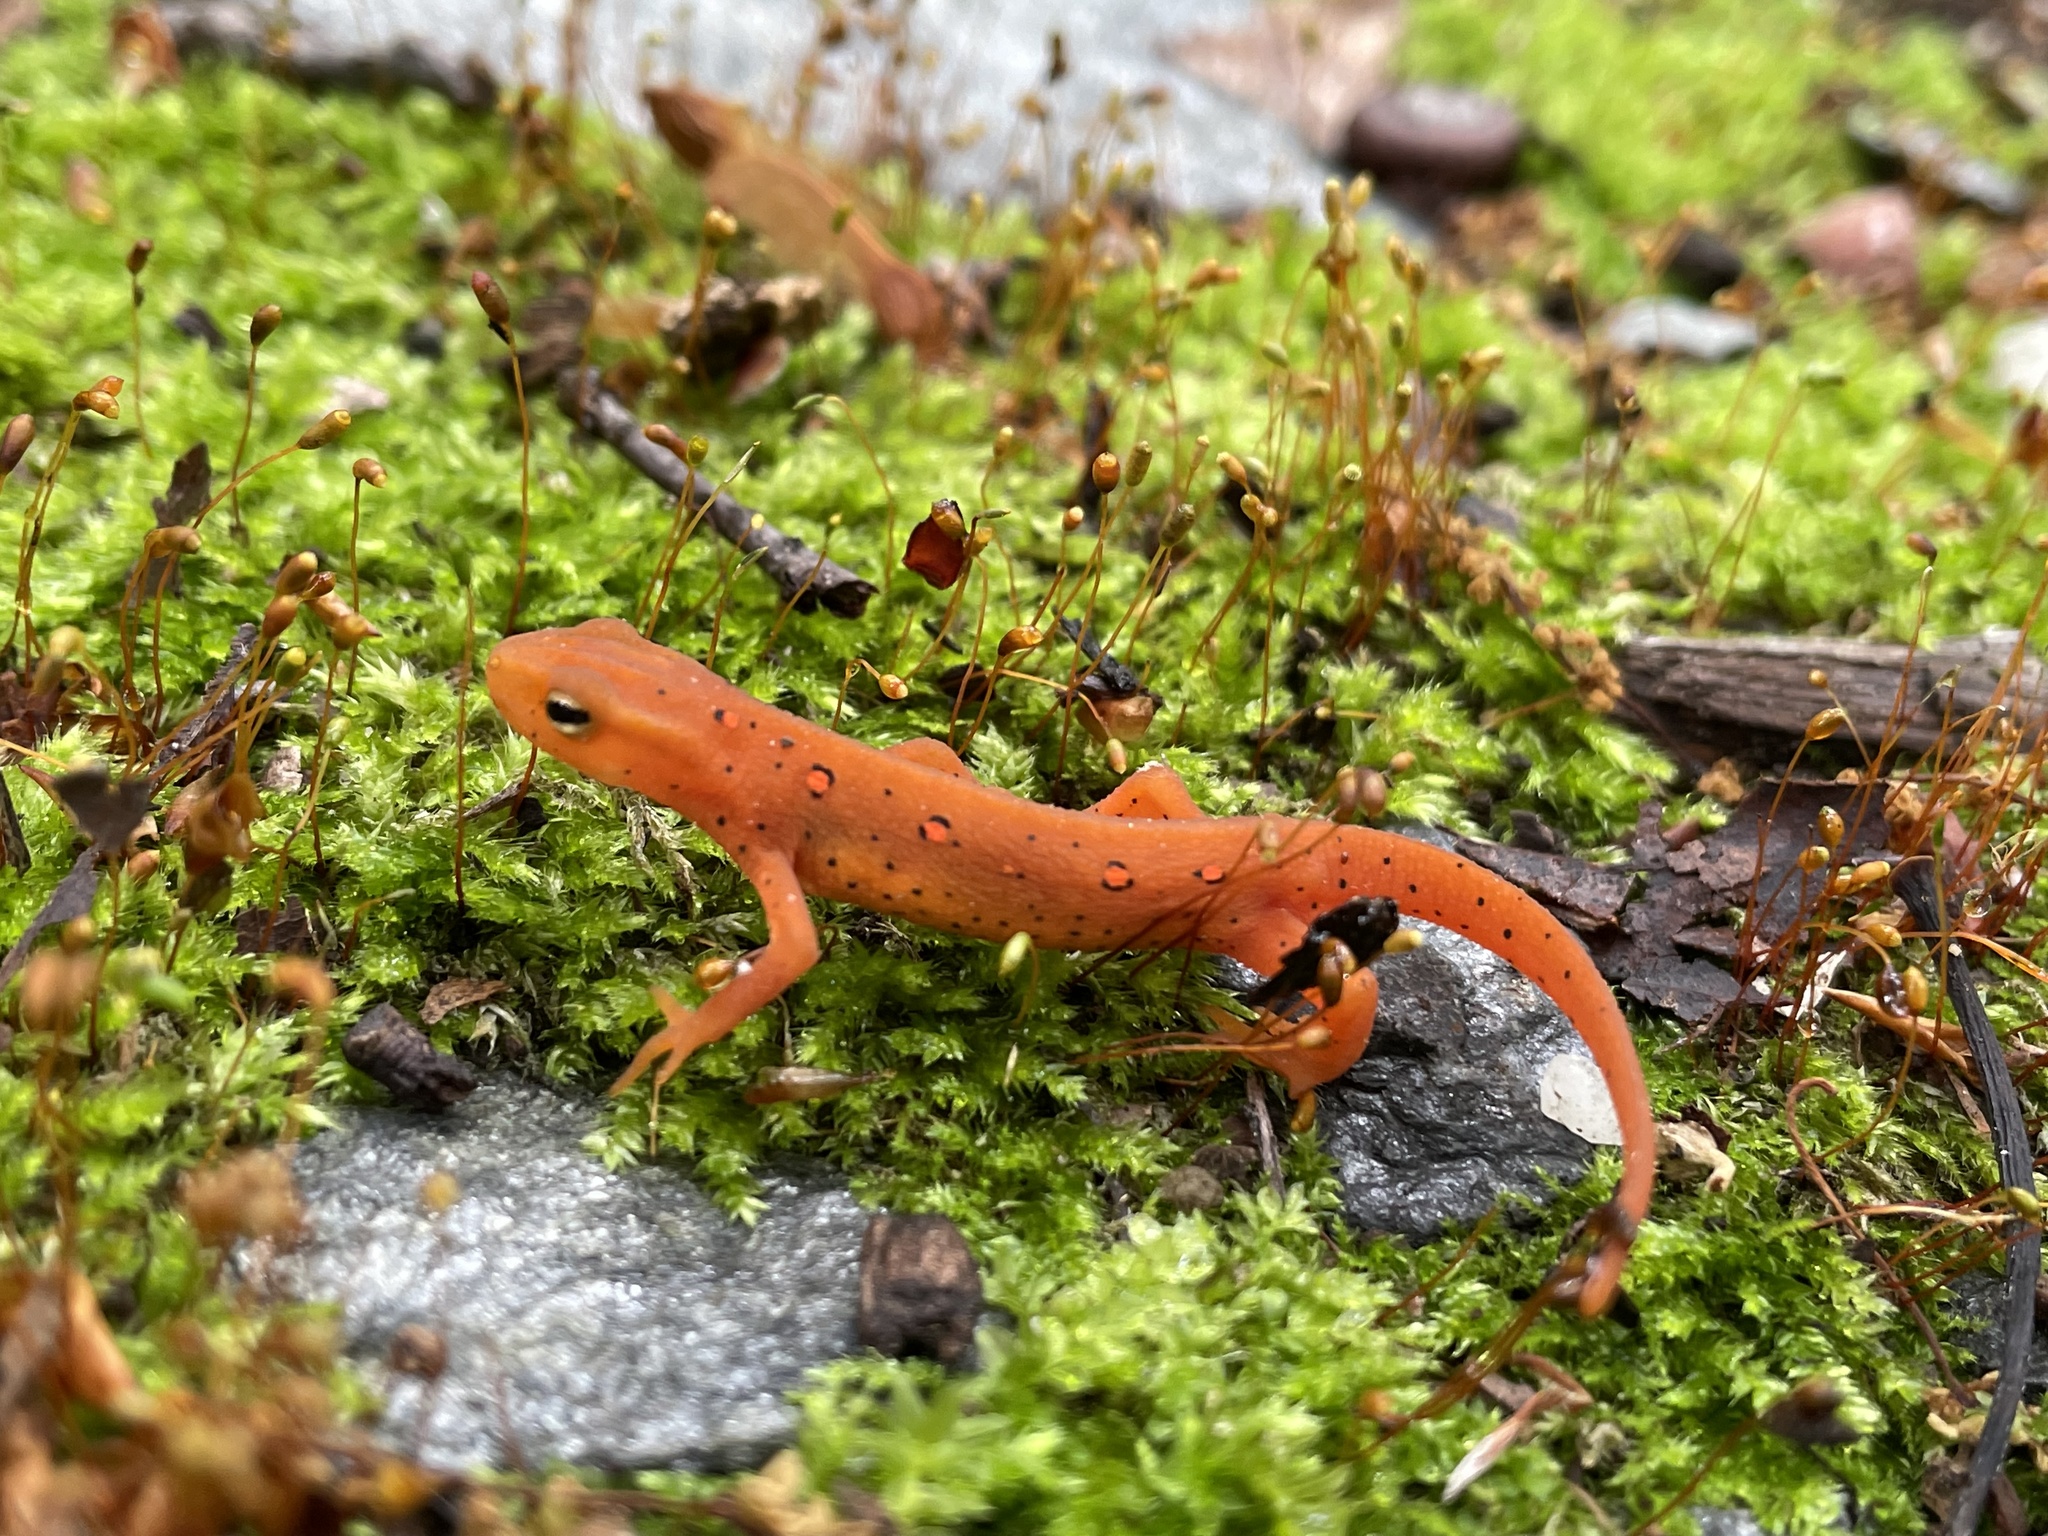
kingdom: Animalia
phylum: Chordata
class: Amphibia
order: Caudata
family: Salamandridae
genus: Notophthalmus
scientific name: Notophthalmus viridescens
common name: Eastern newt
